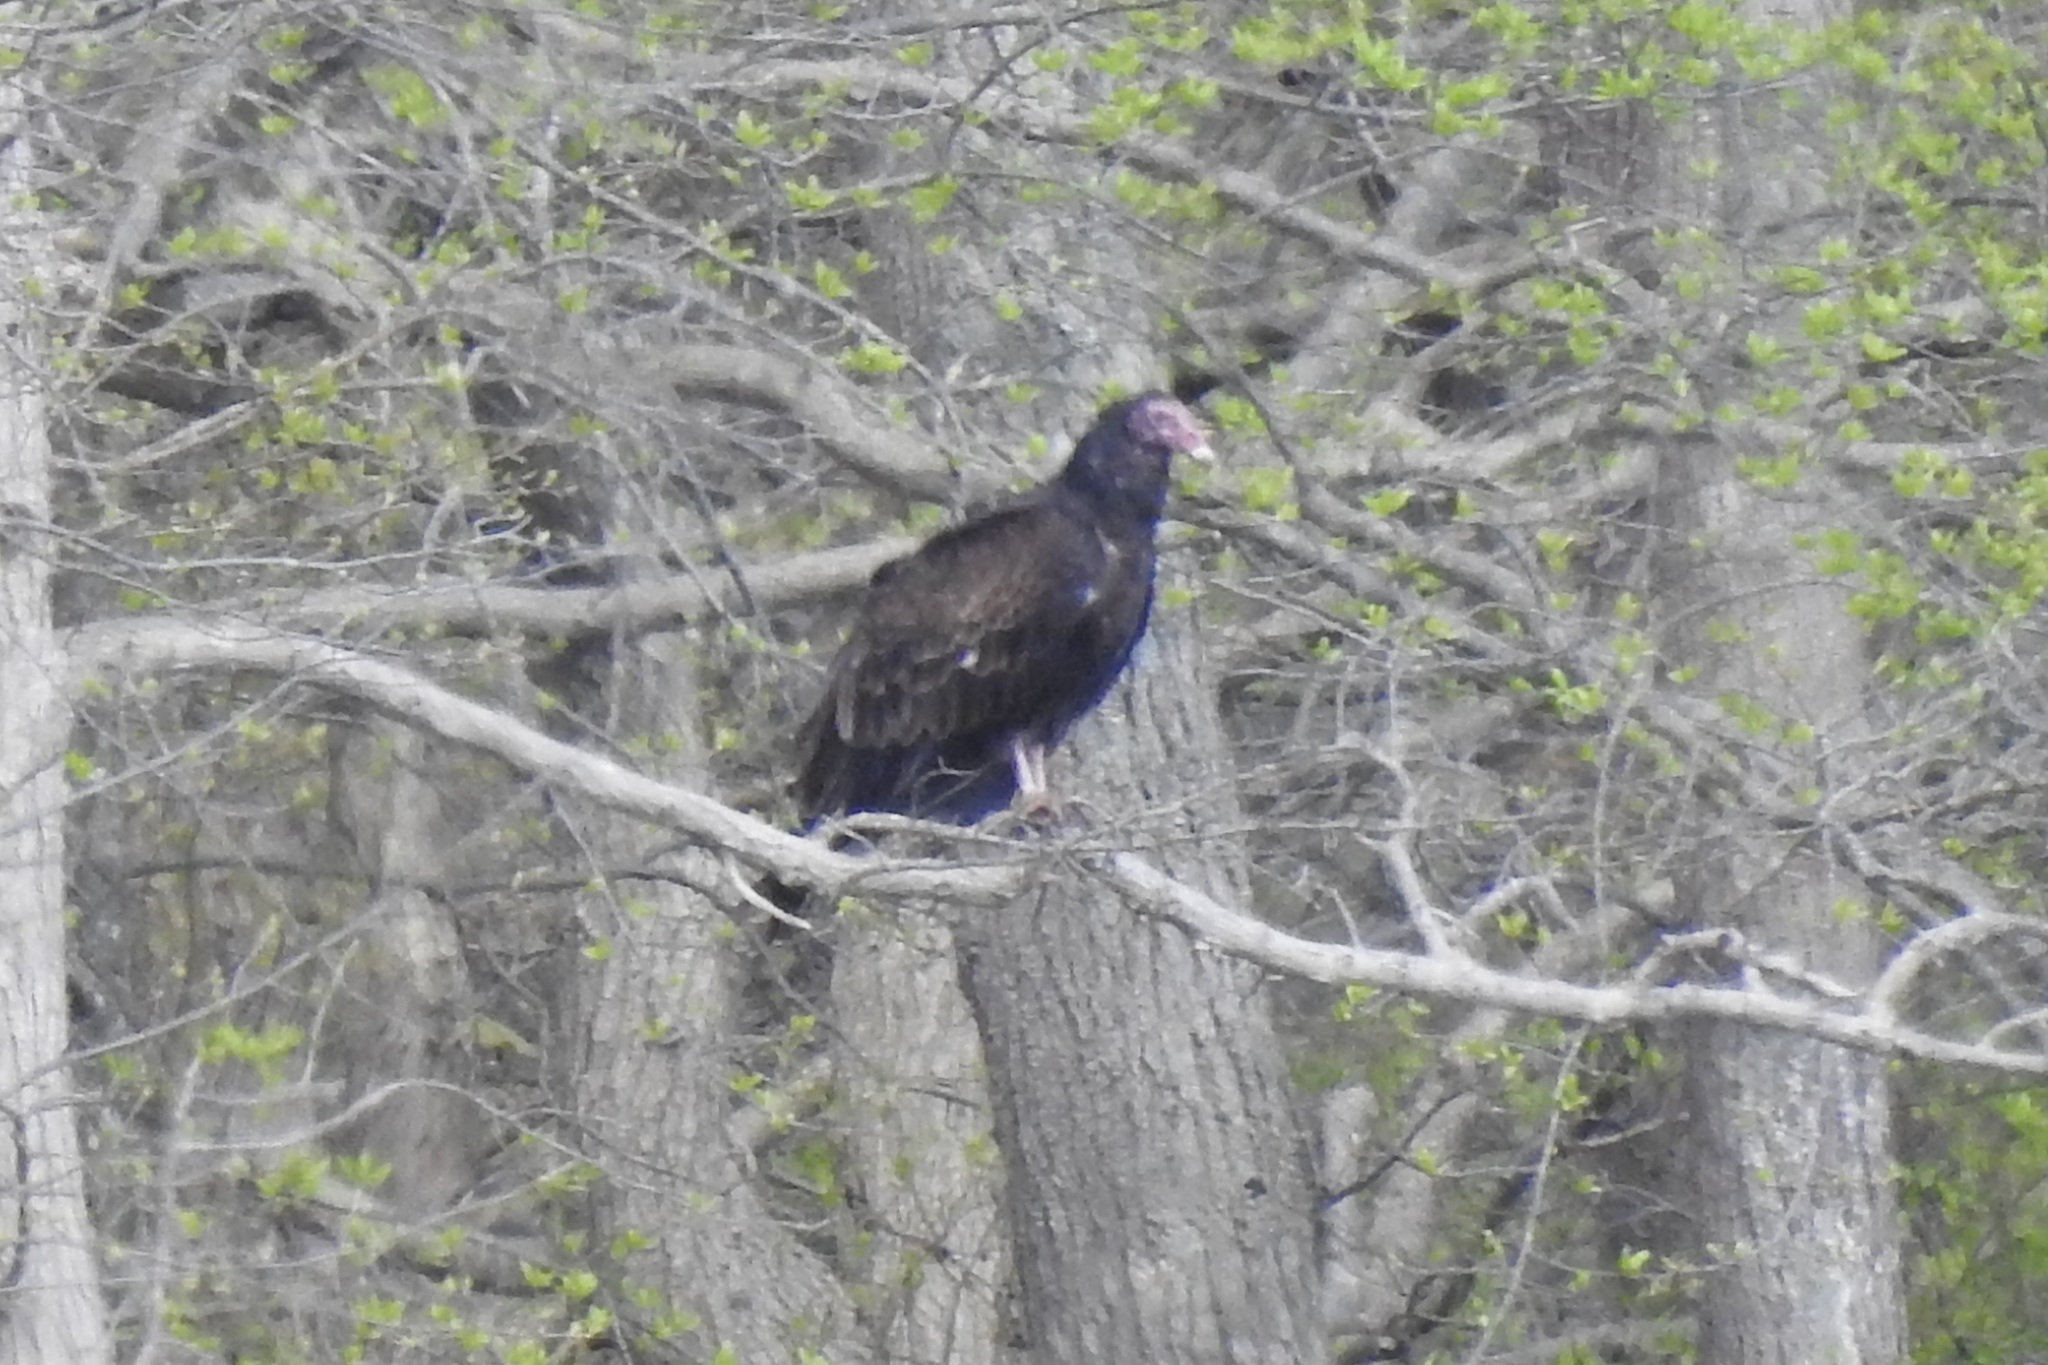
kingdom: Animalia
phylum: Chordata
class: Aves
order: Accipitriformes
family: Cathartidae
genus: Cathartes
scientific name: Cathartes aura
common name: Turkey vulture
